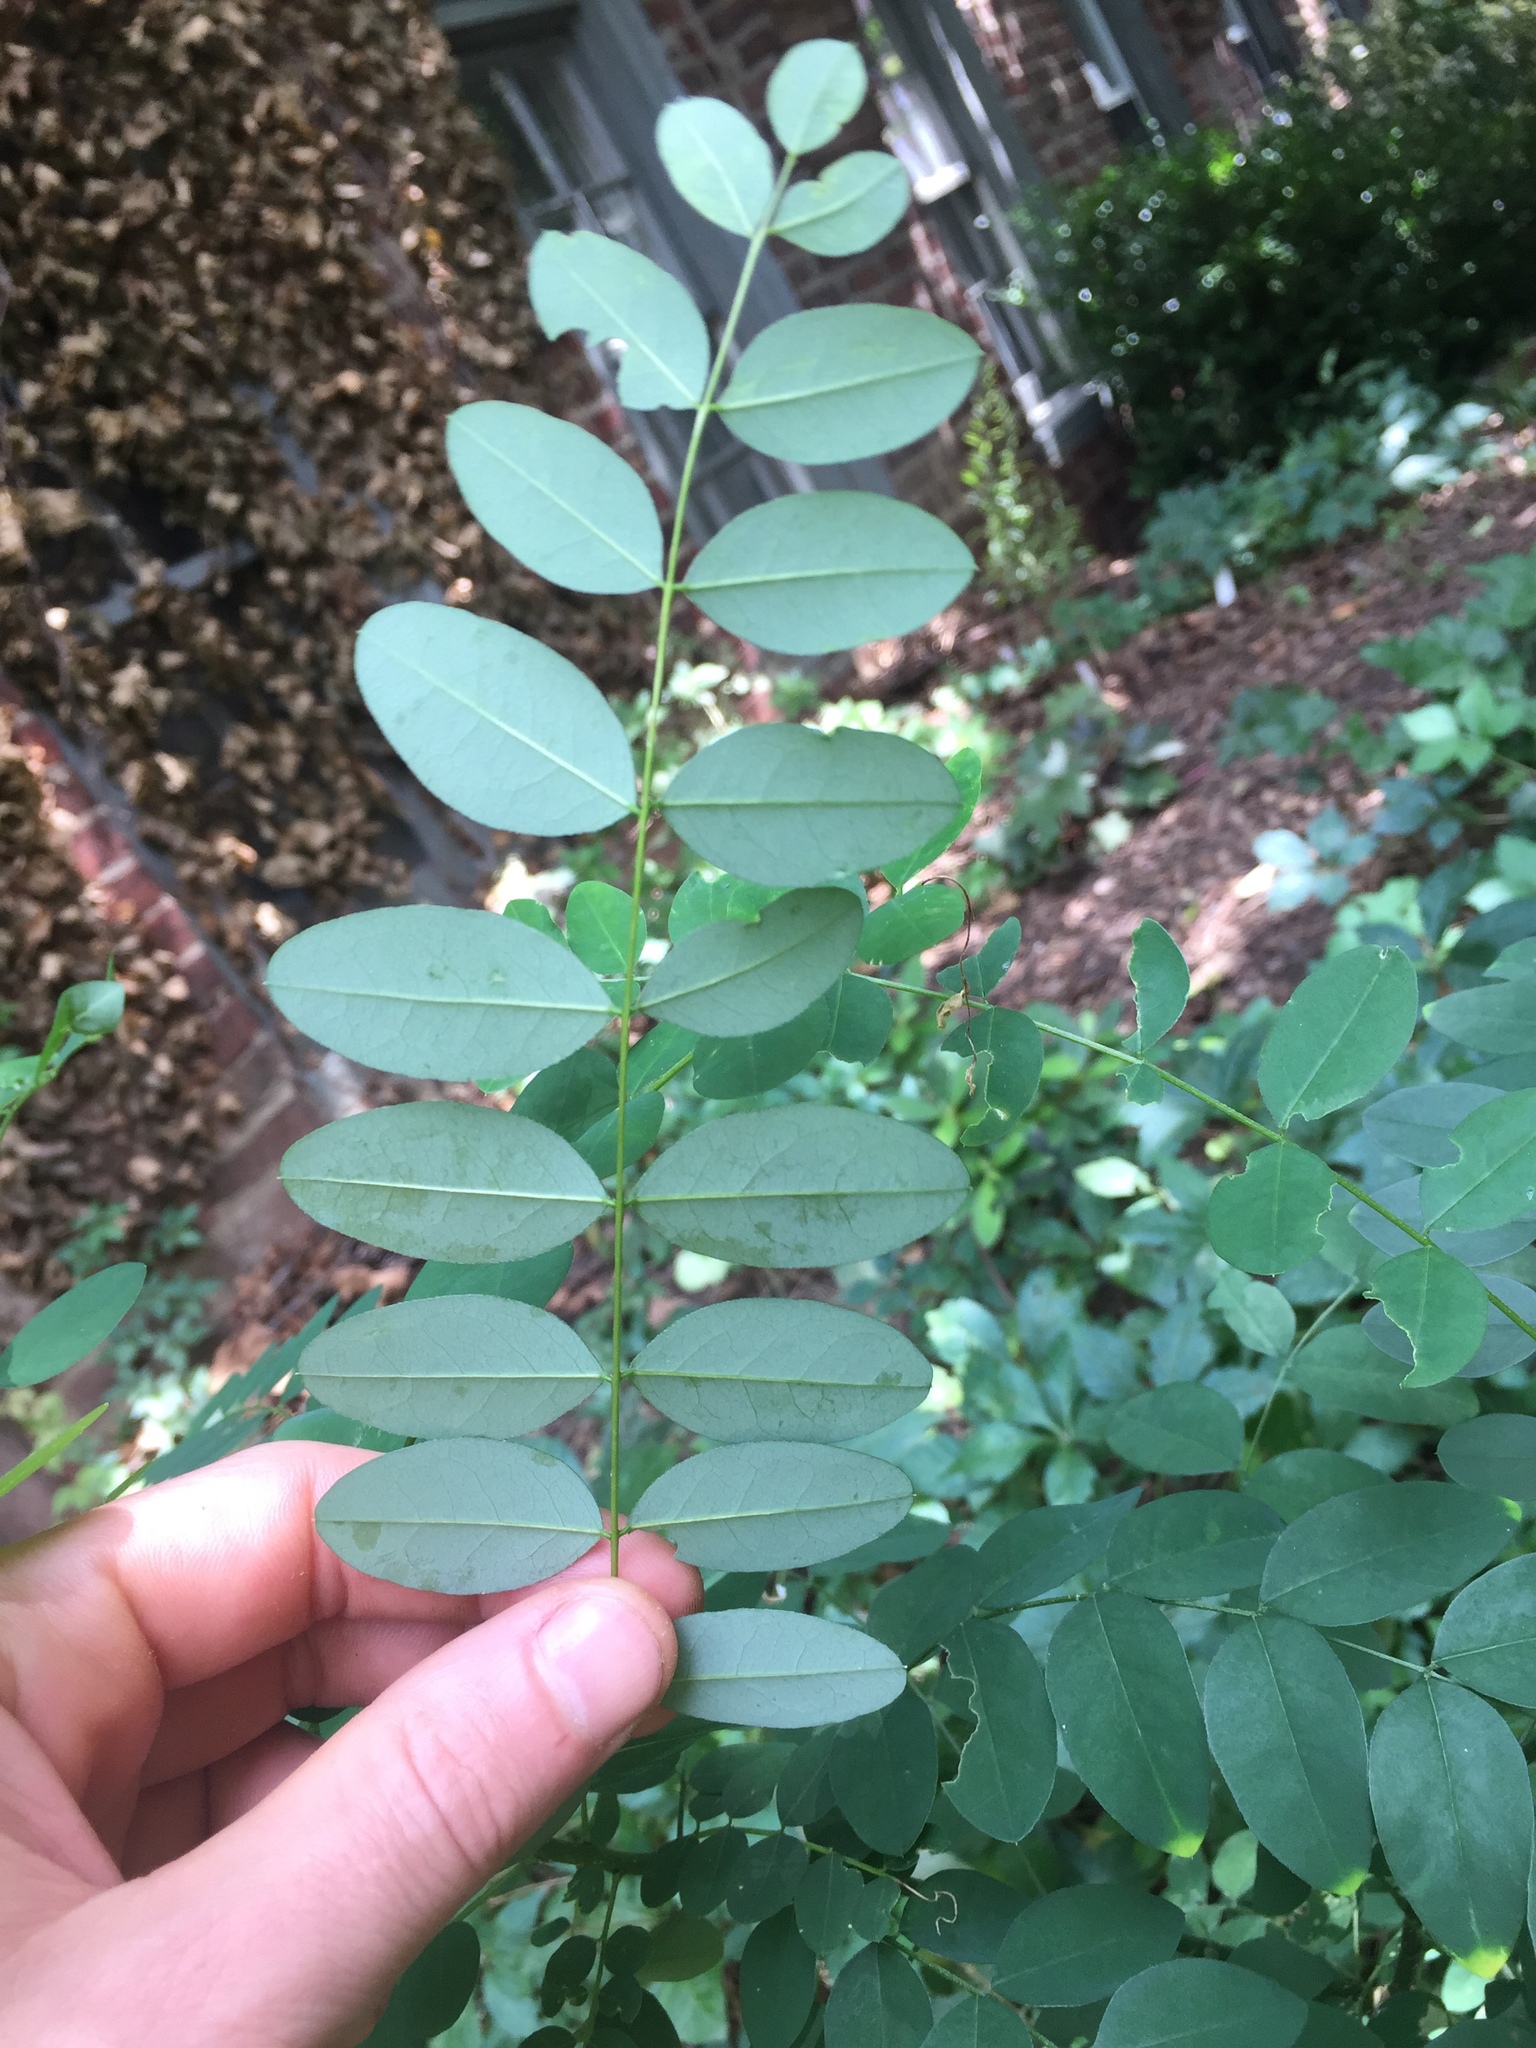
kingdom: Plantae
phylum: Tracheophyta
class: Magnoliopsida
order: Fabales
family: Fabaceae
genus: Robinia
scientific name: Robinia pseudoacacia
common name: Black locust
